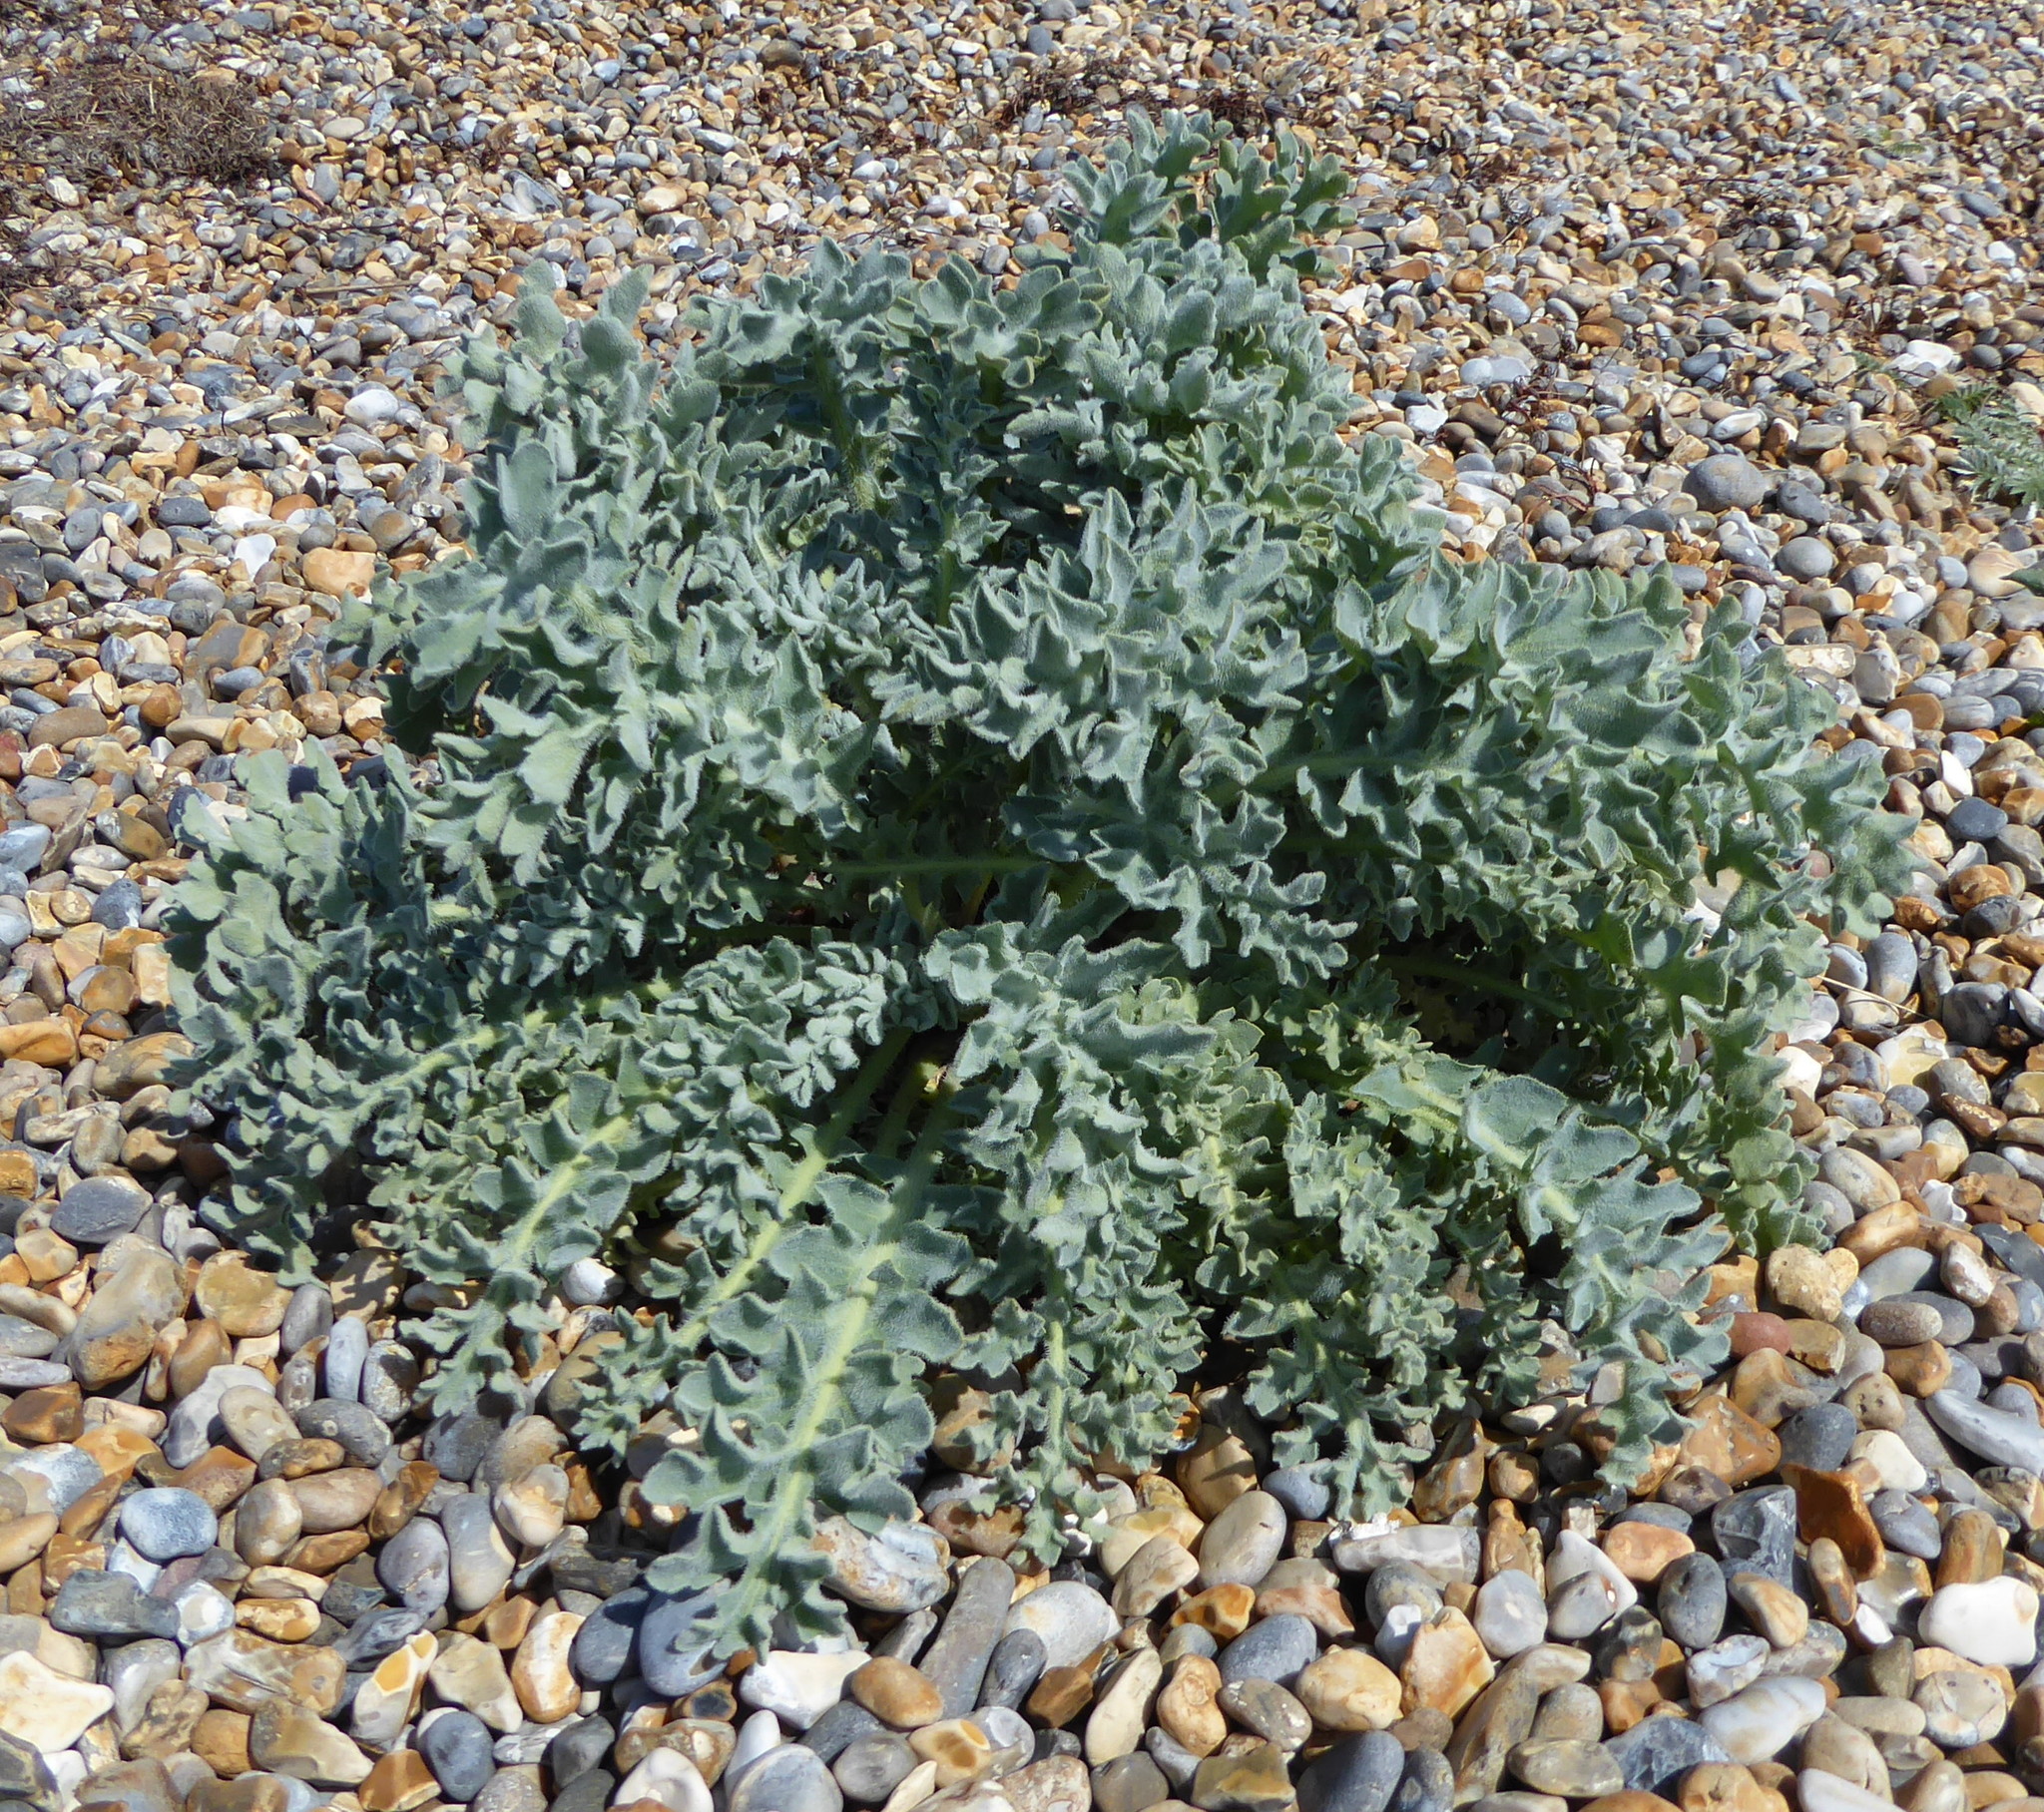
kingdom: Plantae
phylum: Tracheophyta
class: Magnoliopsida
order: Ranunculales
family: Papaveraceae
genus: Glaucium
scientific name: Glaucium flavum
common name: Yellow horned-poppy
